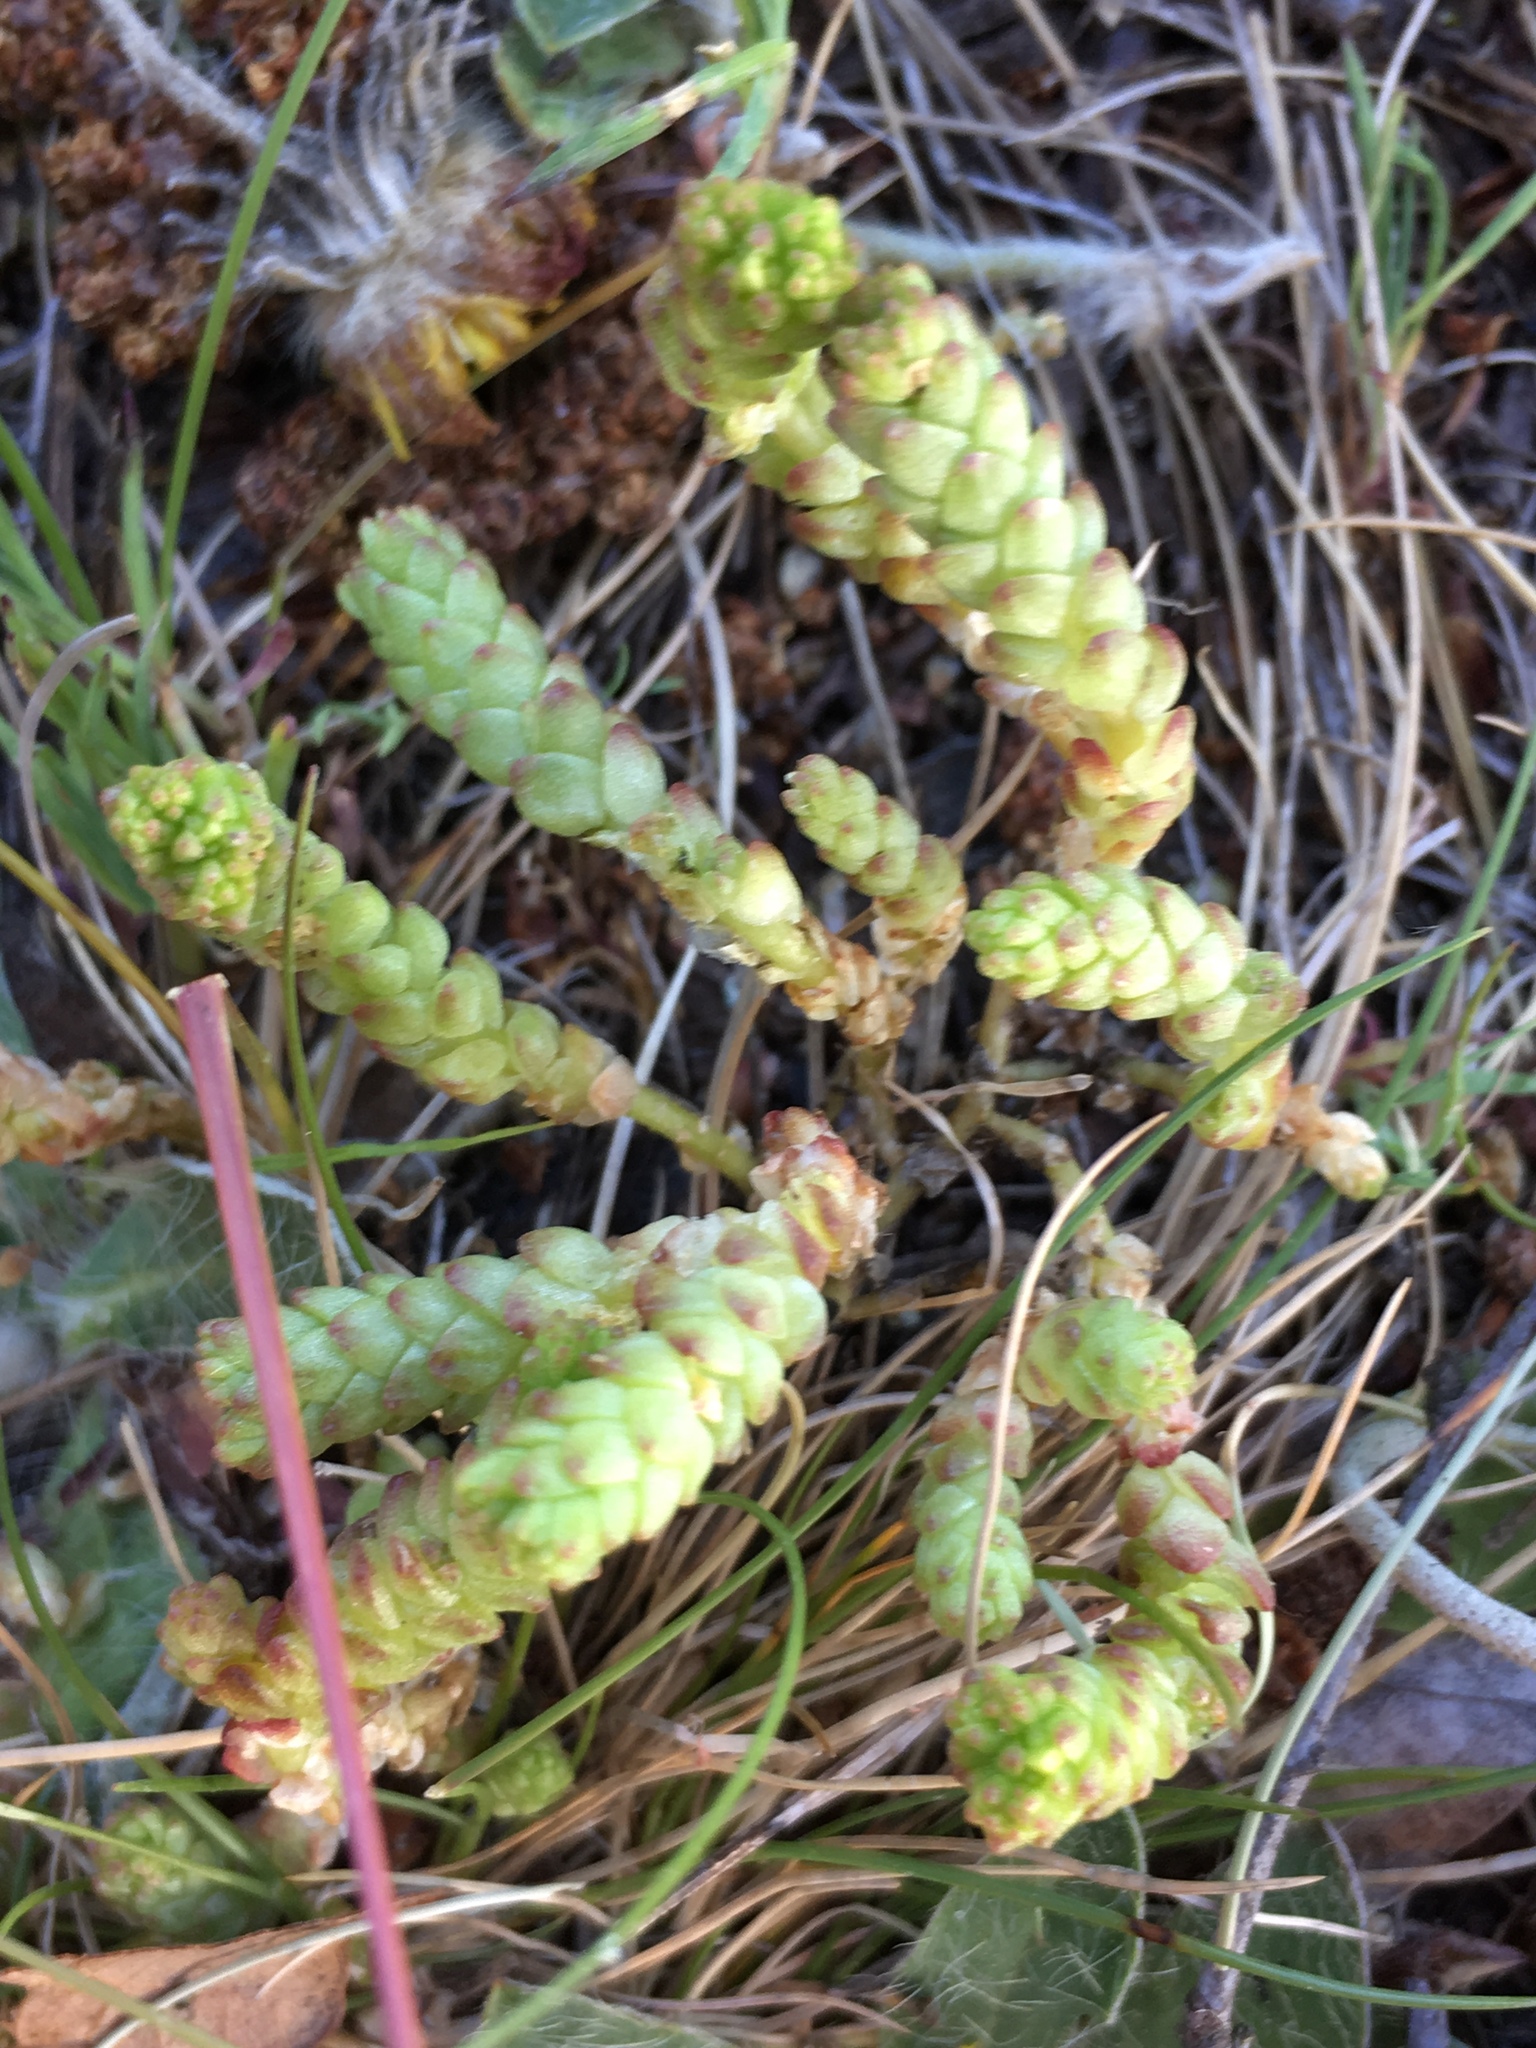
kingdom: Plantae
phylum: Tracheophyta
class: Magnoliopsida
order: Saxifragales
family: Crassulaceae
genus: Sedum
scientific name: Sedum acre
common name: Biting stonecrop
